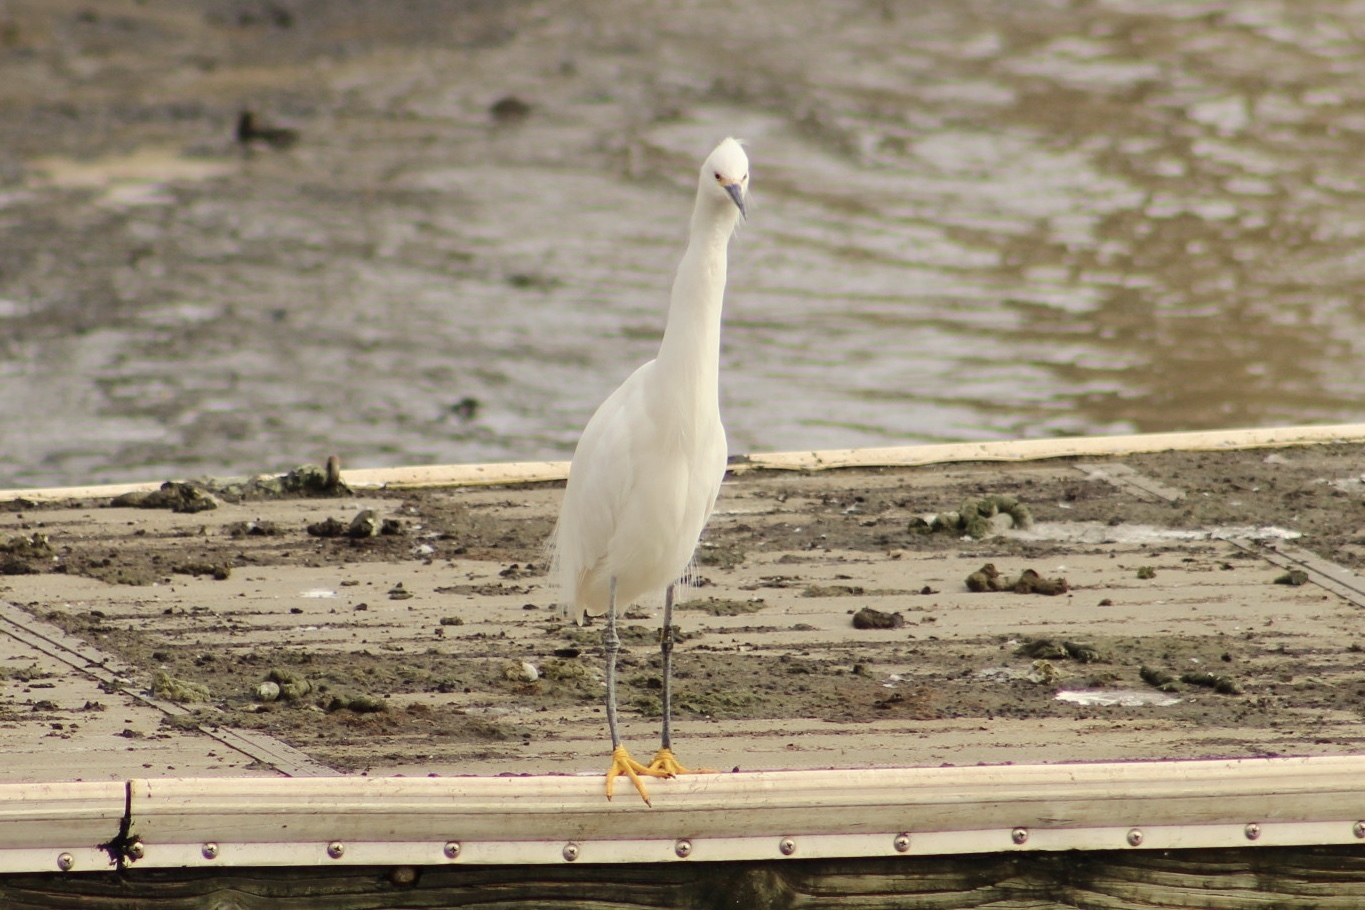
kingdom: Animalia
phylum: Chordata
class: Aves
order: Pelecaniformes
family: Ardeidae
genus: Egretta
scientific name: Egretta thula
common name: Snowy egret
